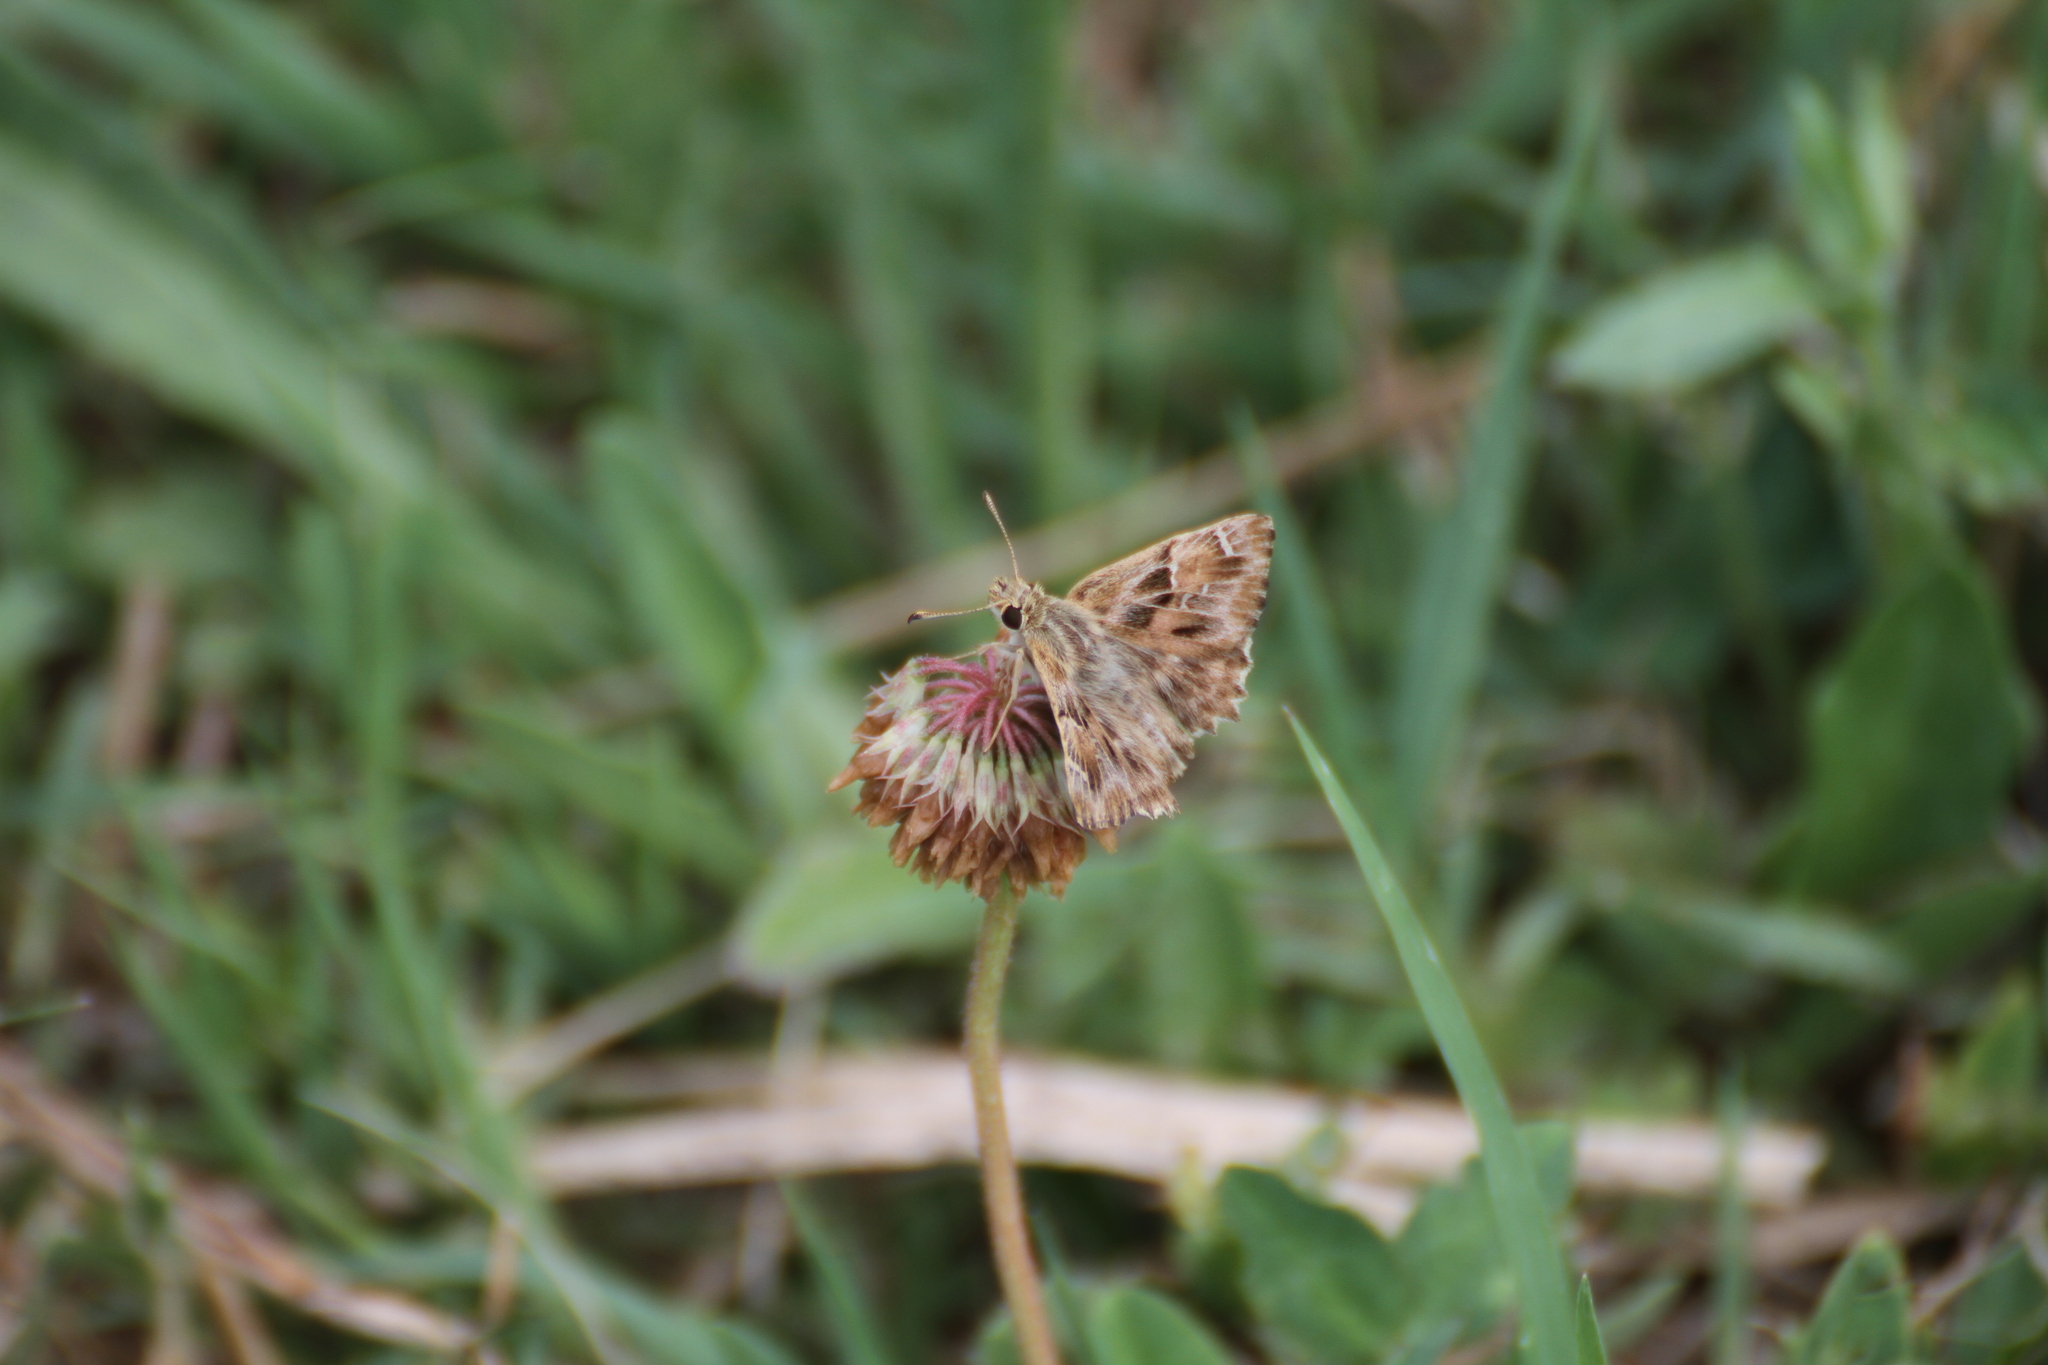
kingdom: Animalia
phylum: Arthropoda
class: Insecta
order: Lepidoptera
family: Hesperiidae
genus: Carcharodus
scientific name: Carcharodus alceae
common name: Mallow skipper
